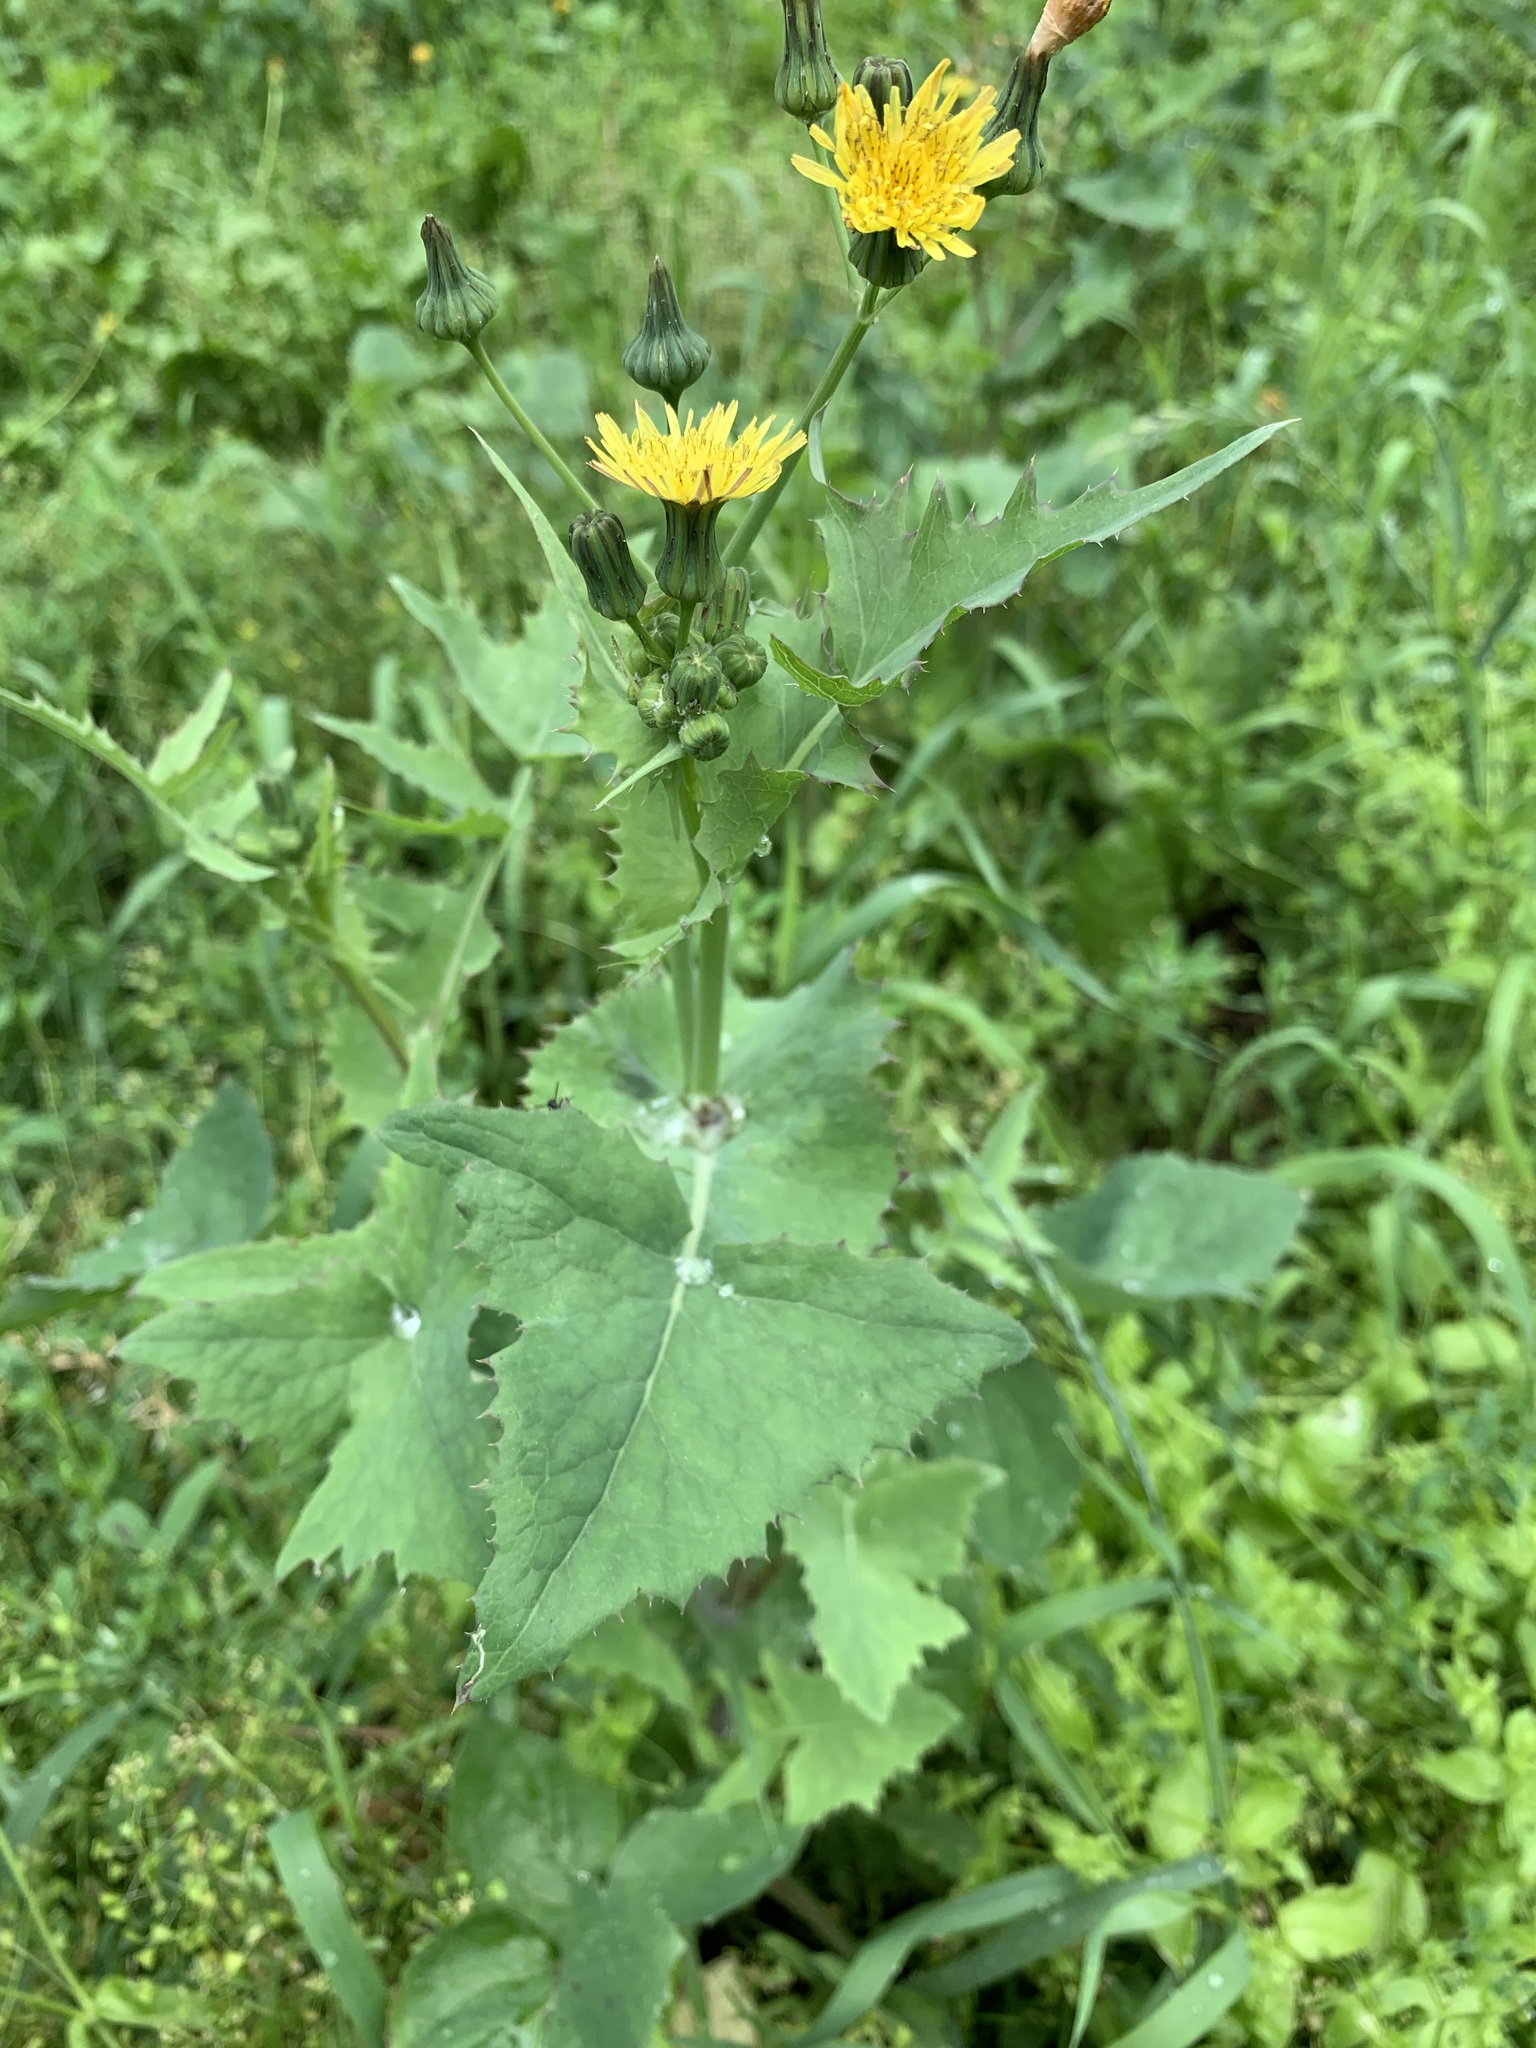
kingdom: Plantae
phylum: Tracheophyta
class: Magnoliopsida
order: Asterales
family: Asteraceae
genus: Sonchus
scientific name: Sonchus oleraceus
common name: Common sowthistle
